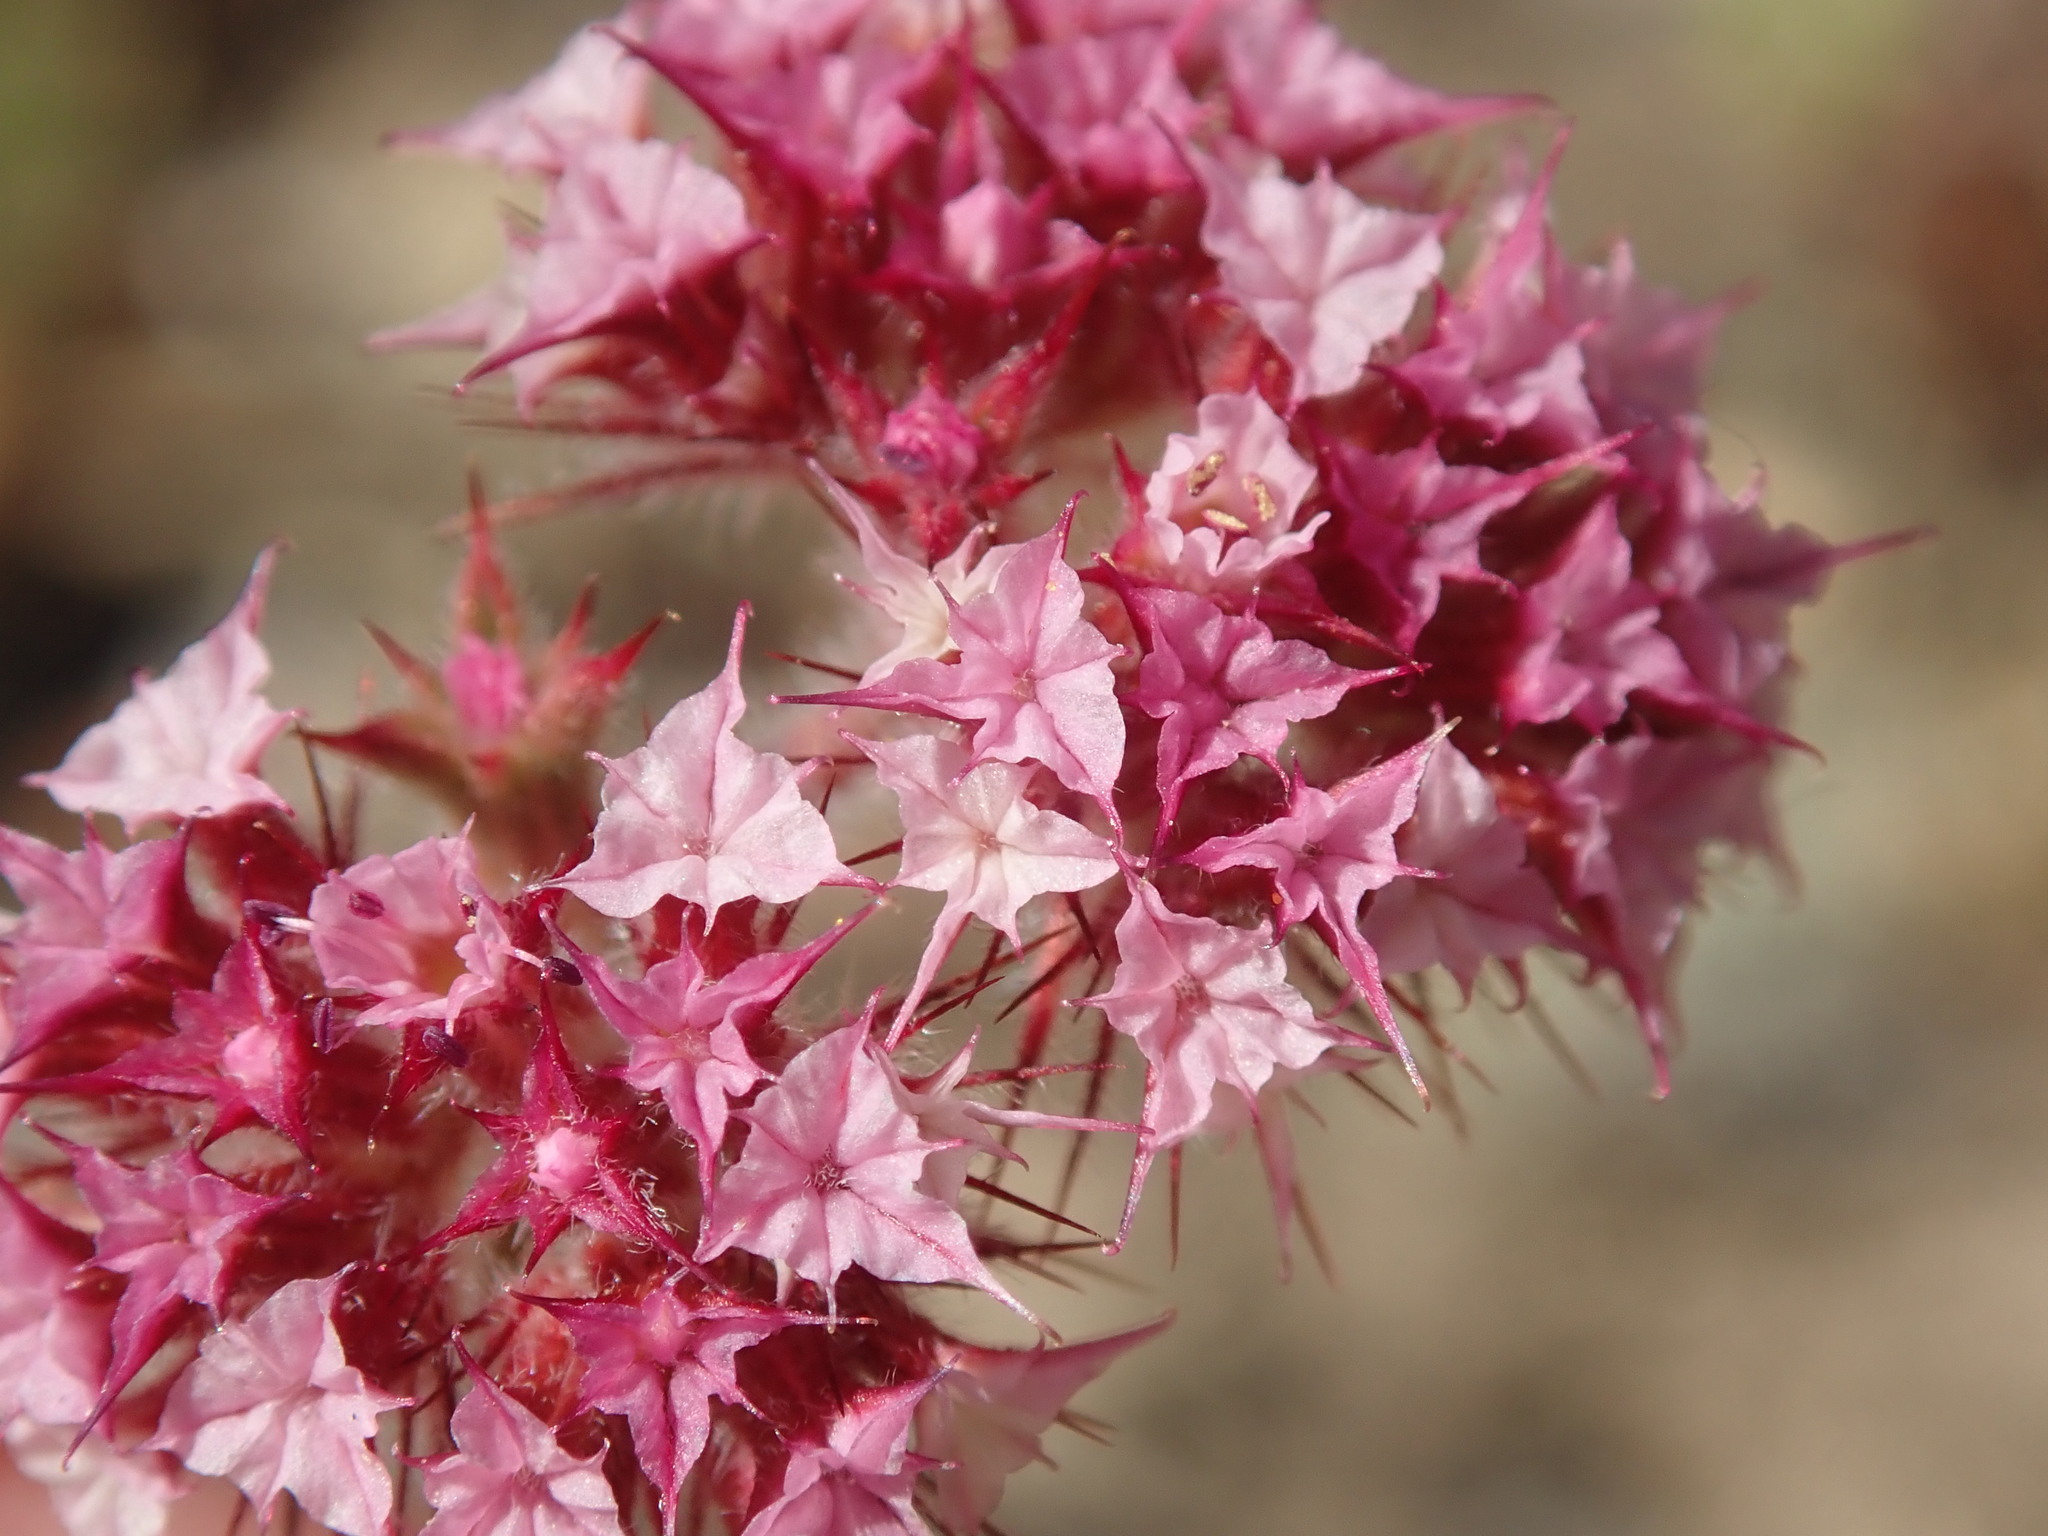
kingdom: Plantae
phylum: Tracheophyta
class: Magnoliopsida
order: Caryophyllales
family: Polygonaceae
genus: Chorizanthe
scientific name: Chorizanthe douglasii
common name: Douglas's spineflower
